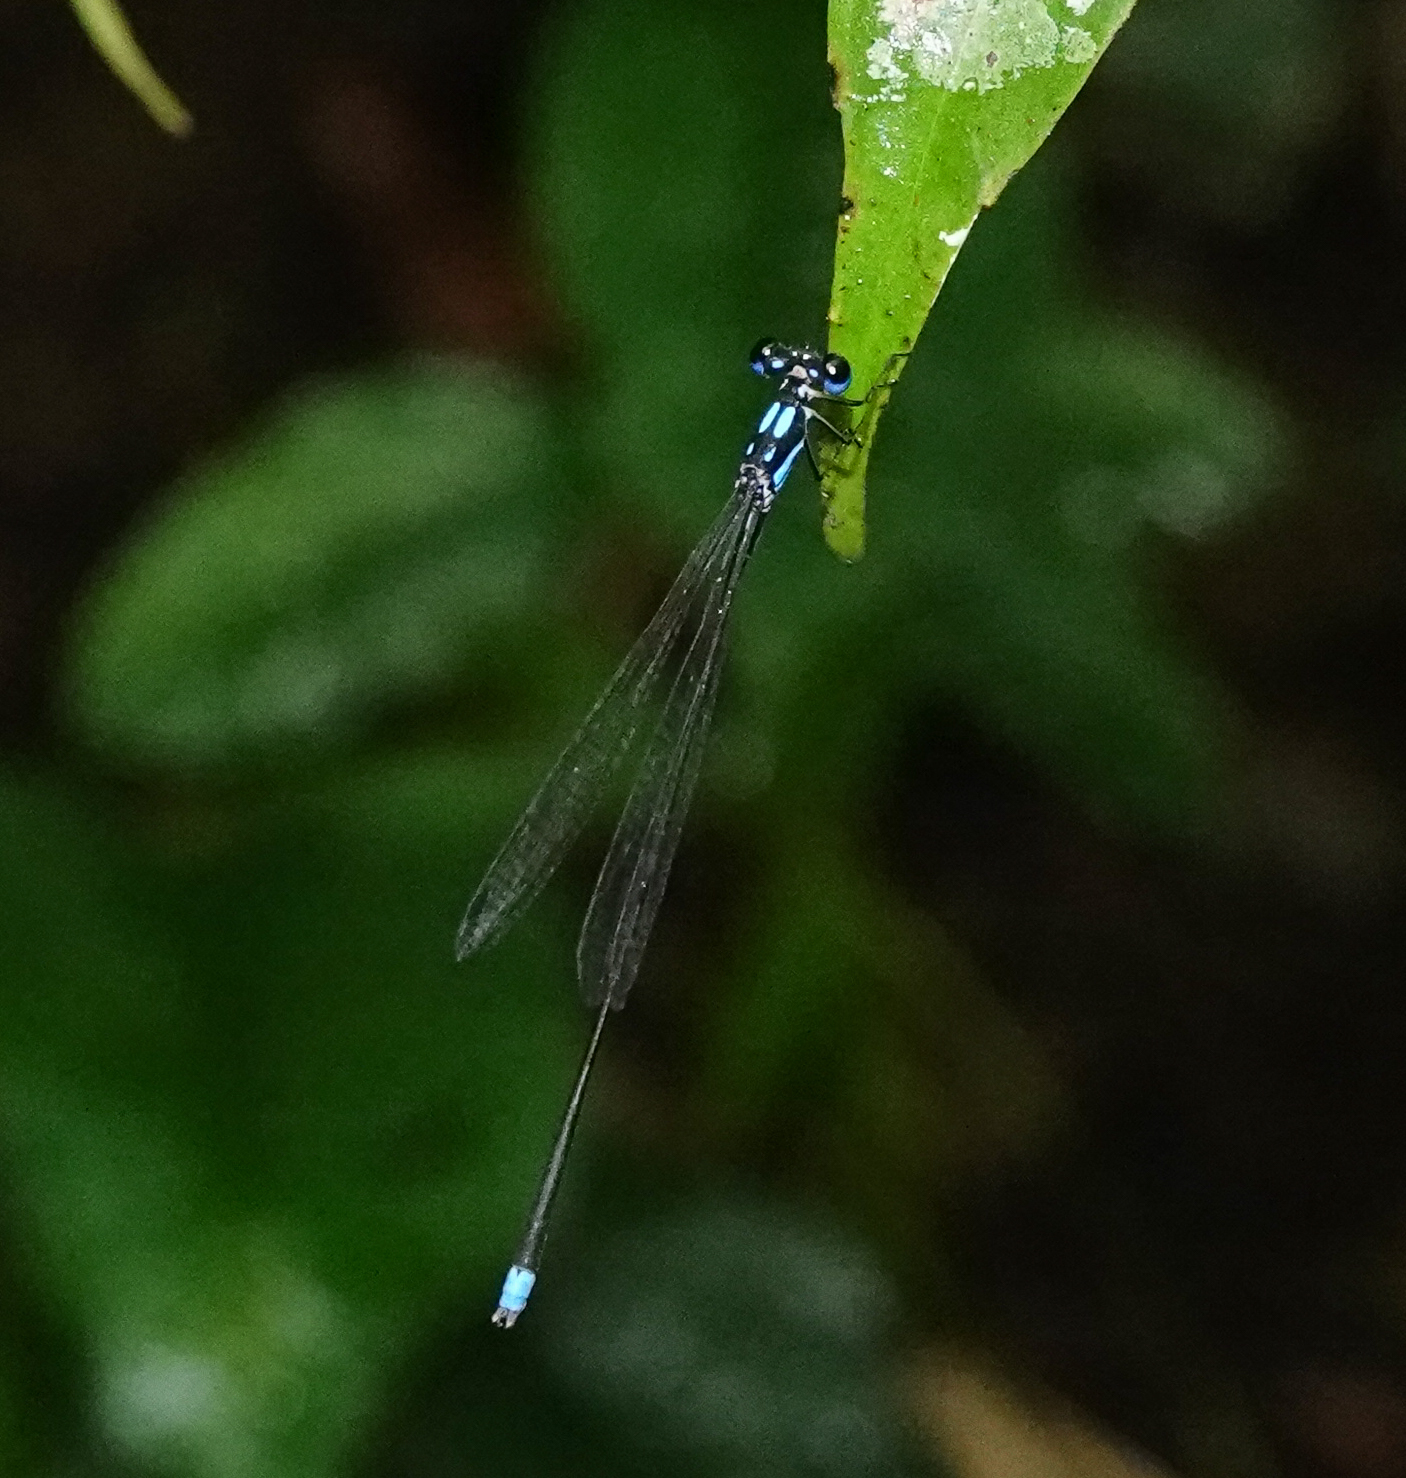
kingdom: Animalia
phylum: Arthropoda
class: Insecta
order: Odonata
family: Platycnemididae
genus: Coeliccia
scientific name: Coeliccia didyma
